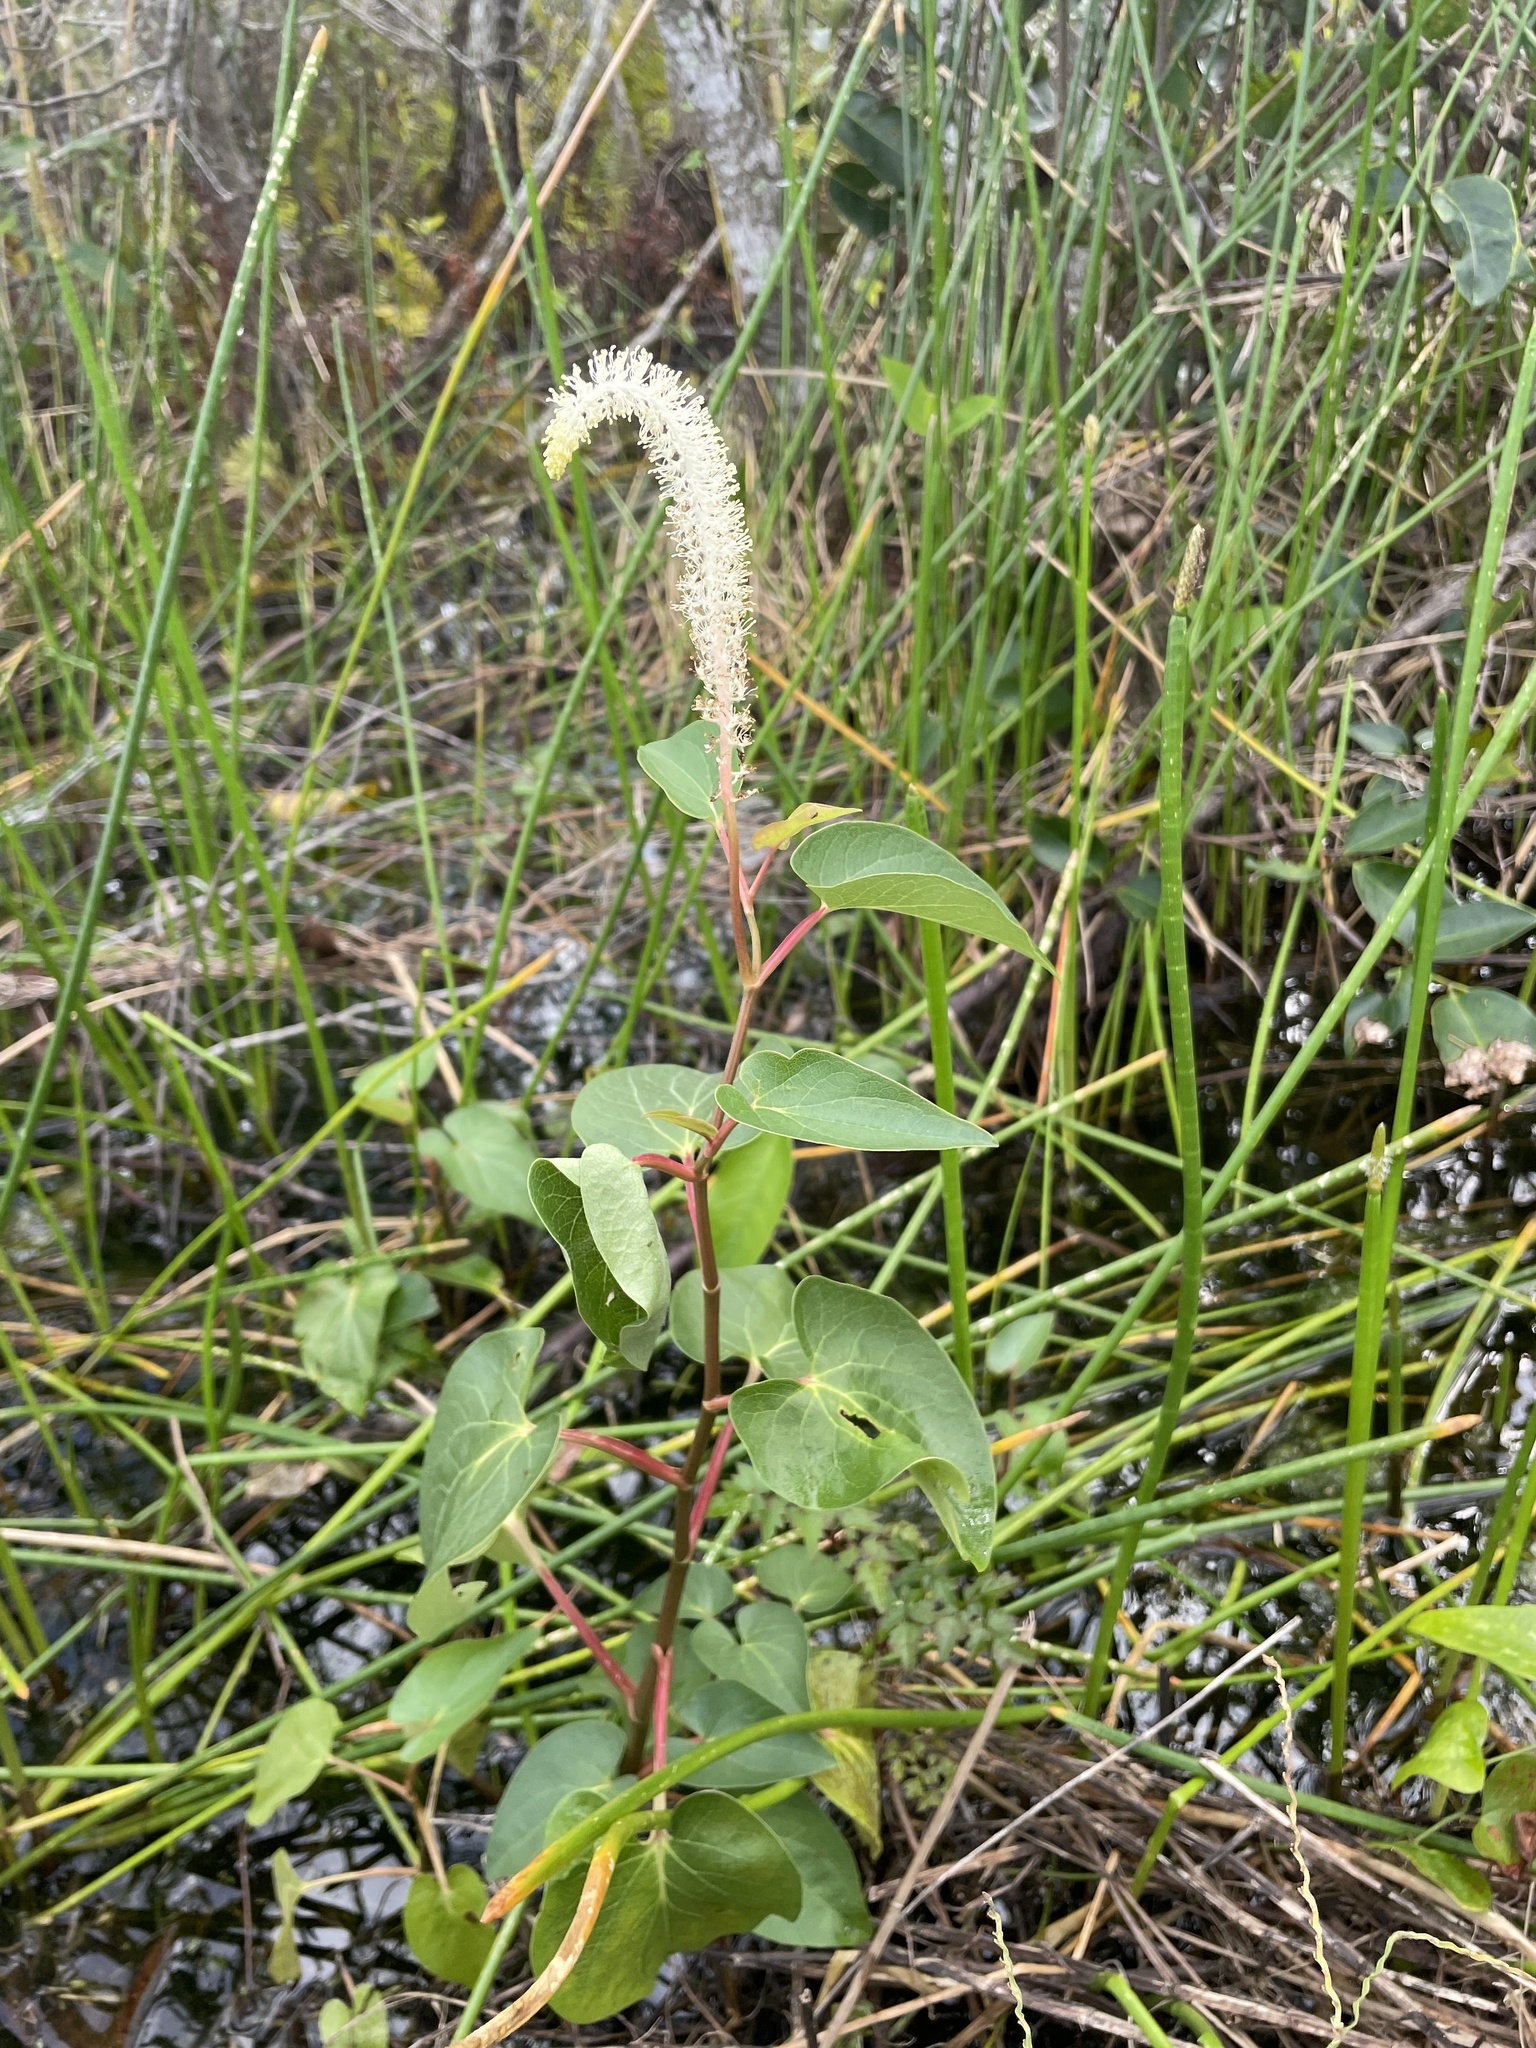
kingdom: Plantae
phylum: Tracheophyta
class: Magnoliopsida
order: Piperales
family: Saururaceae
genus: Saururus
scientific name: Saururus cernuus
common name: Lizard's-tail
